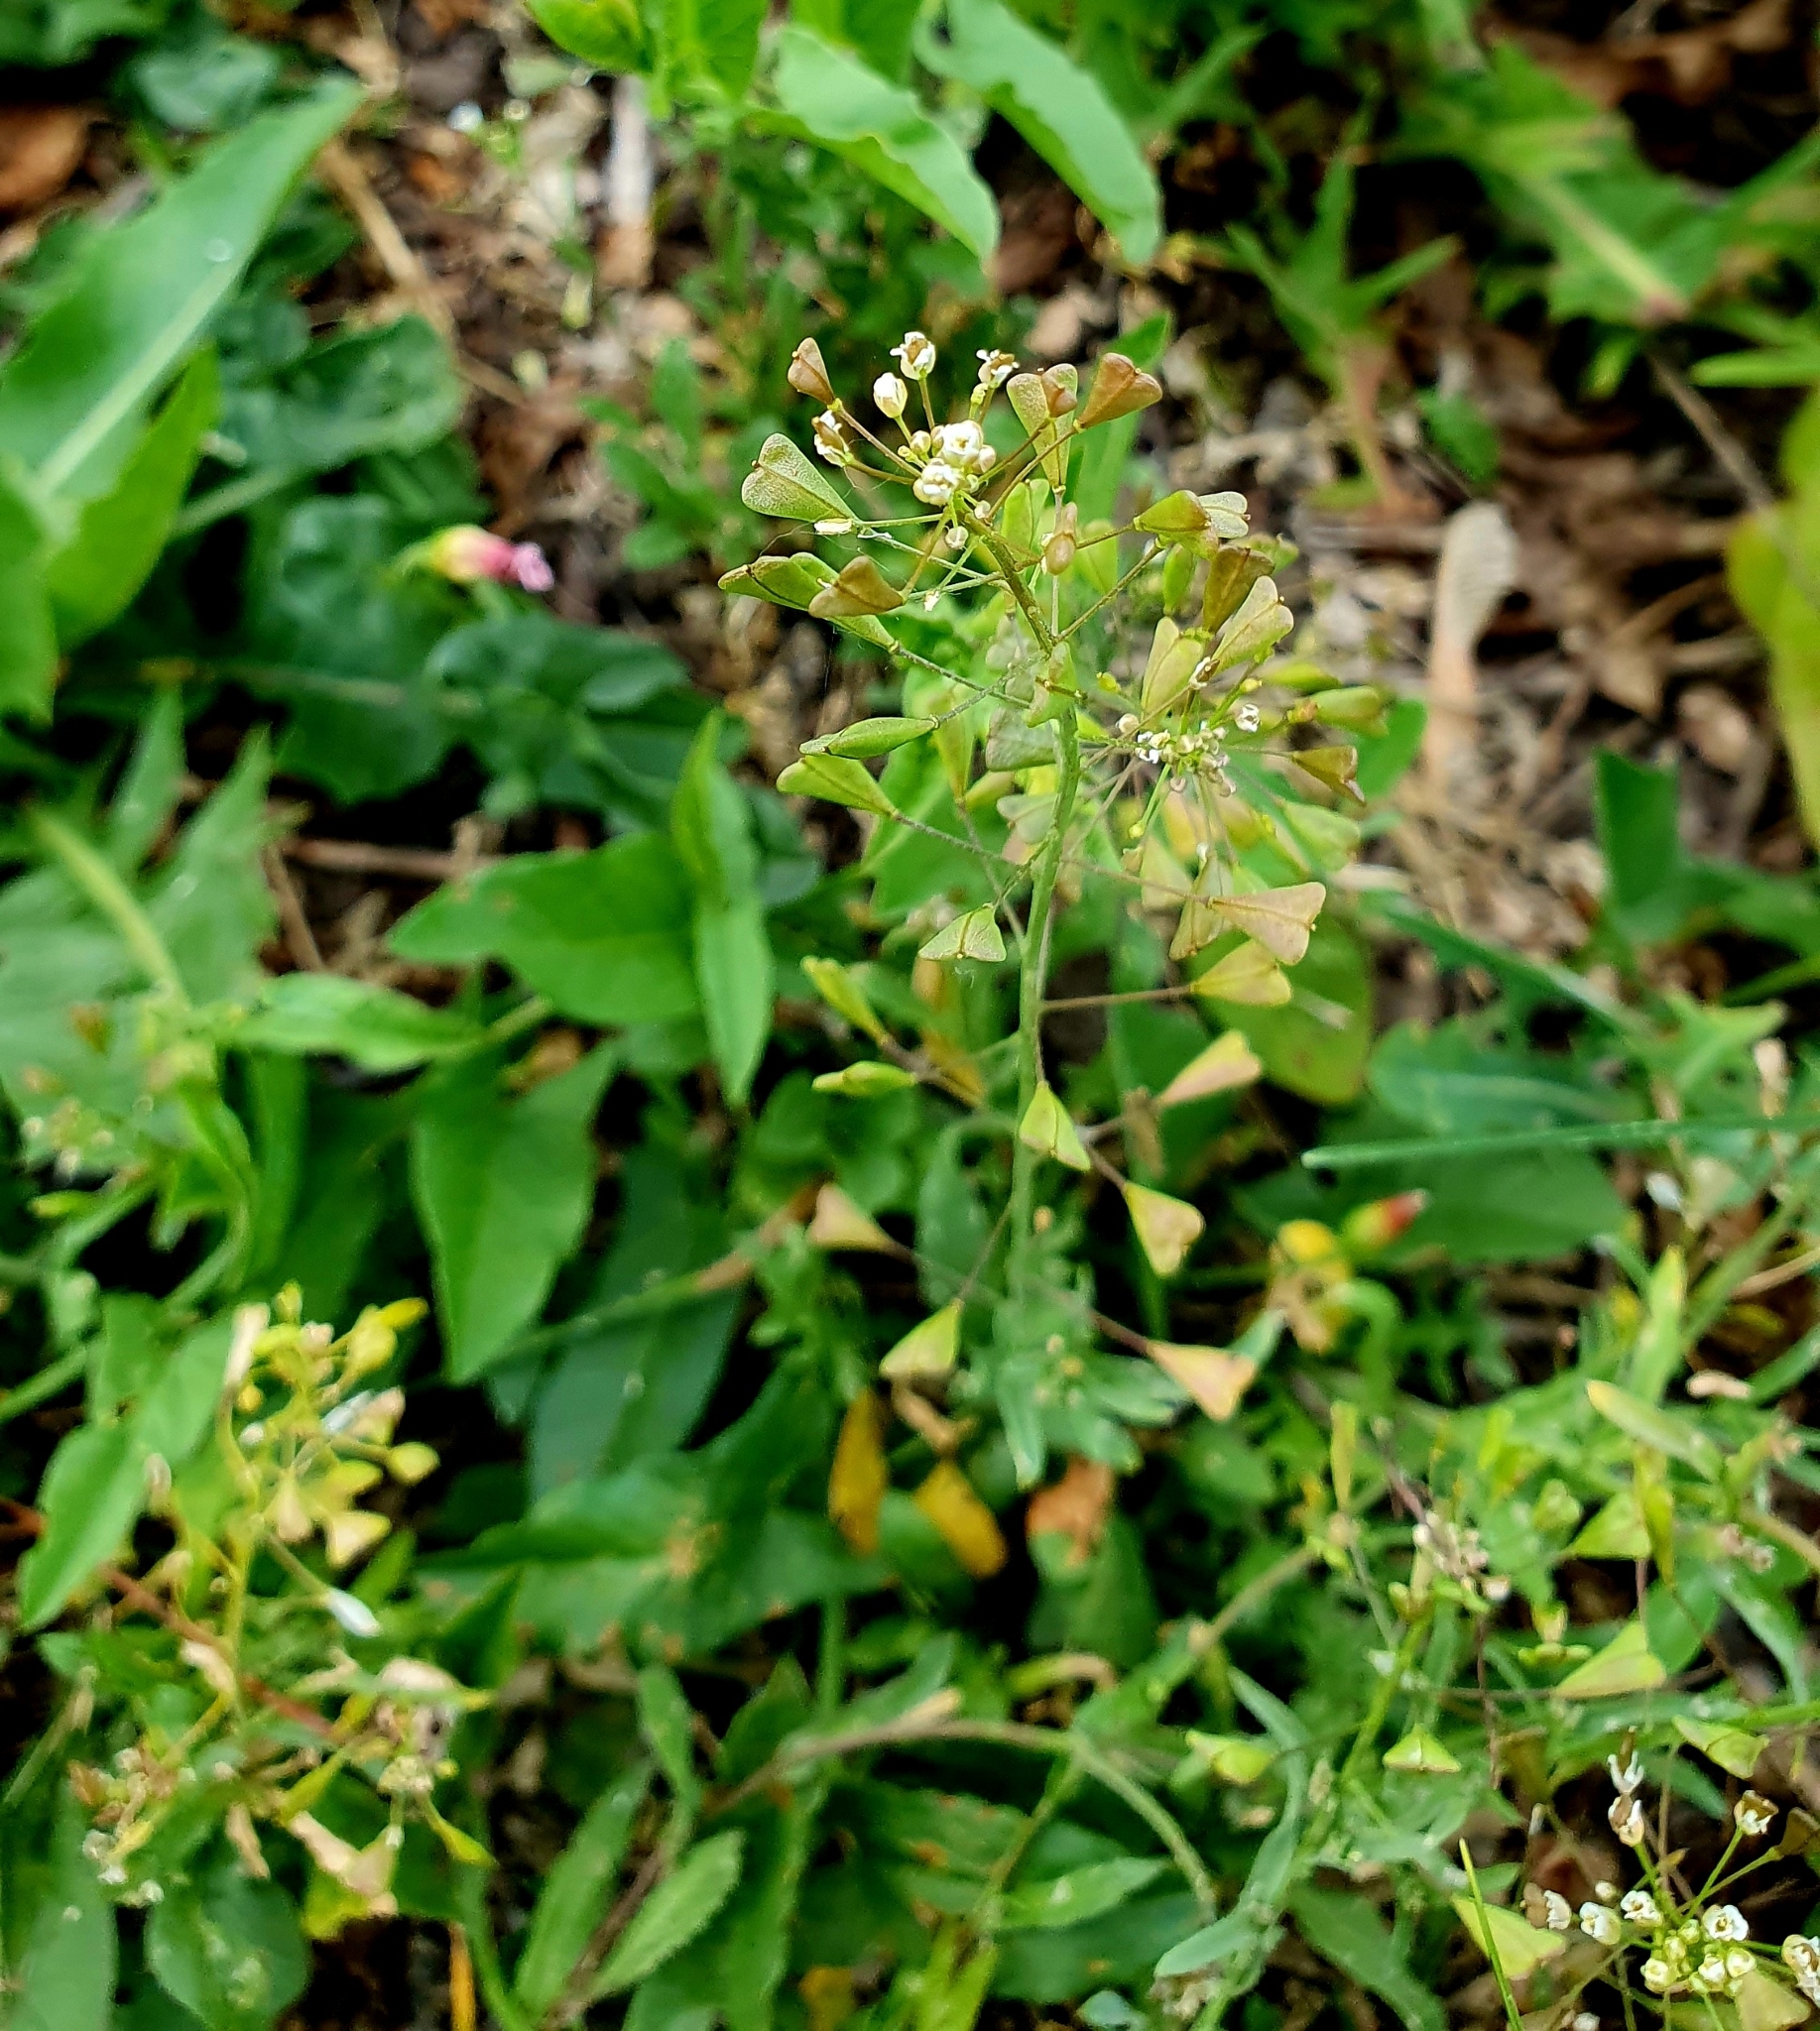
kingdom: Plantae
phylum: Tracheophyta
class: Magnoliopsida
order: Brassicales
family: Brassicaceae
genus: Capsella
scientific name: Capsella bursa-pastoris
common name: Shepherd's purse
